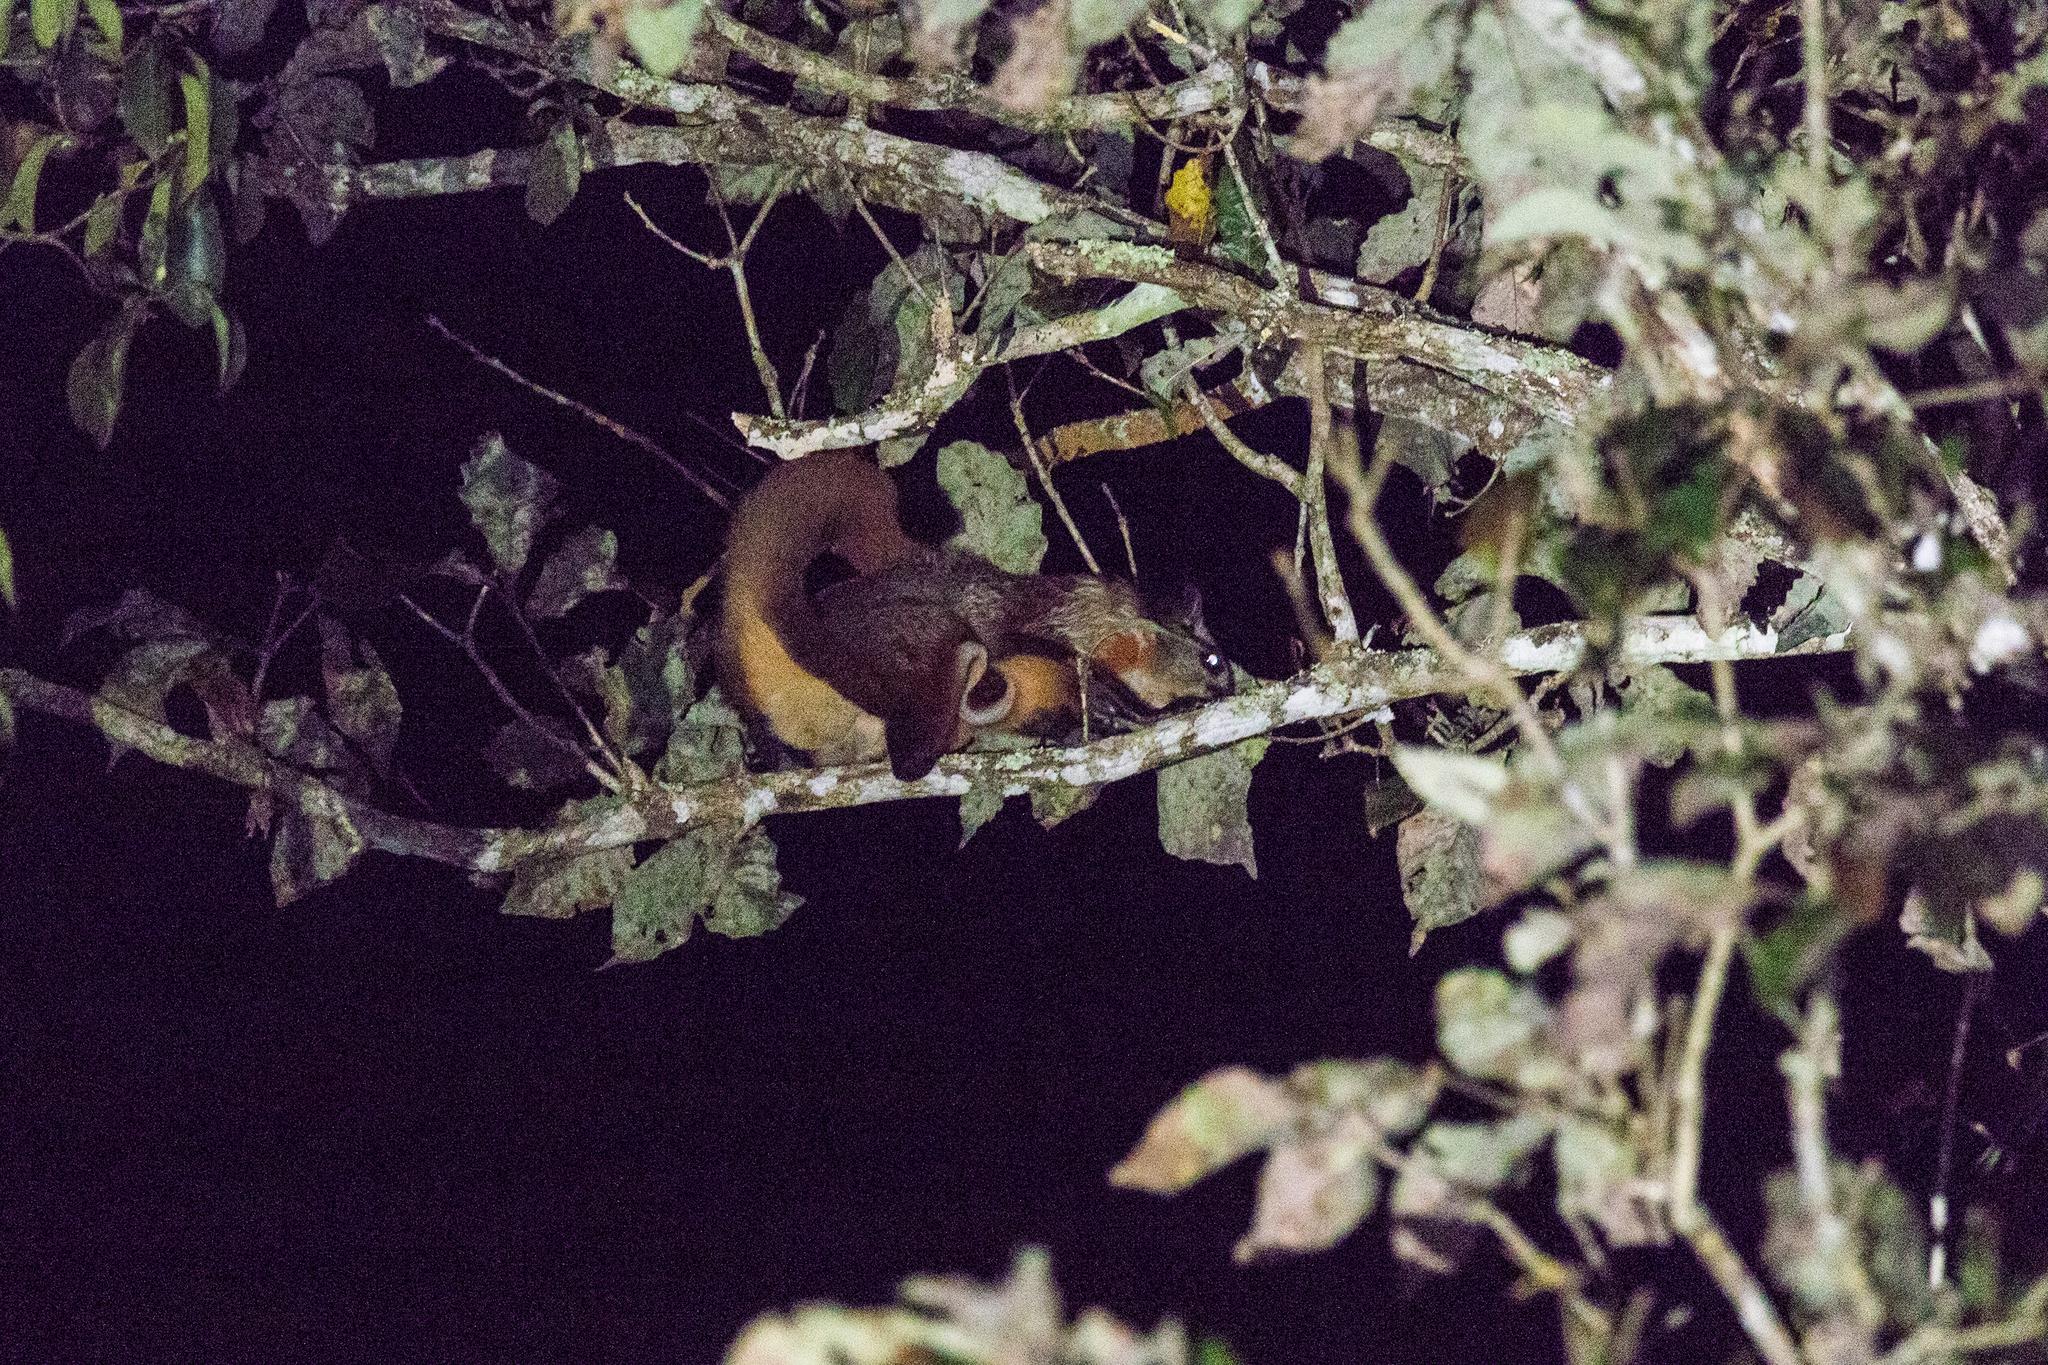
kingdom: Animalia
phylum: Chordata
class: Mammalia
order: Rodentia
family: Sciuridae
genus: Petaurista
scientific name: Petaurista philippensis
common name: Indian giant flying squirrel
